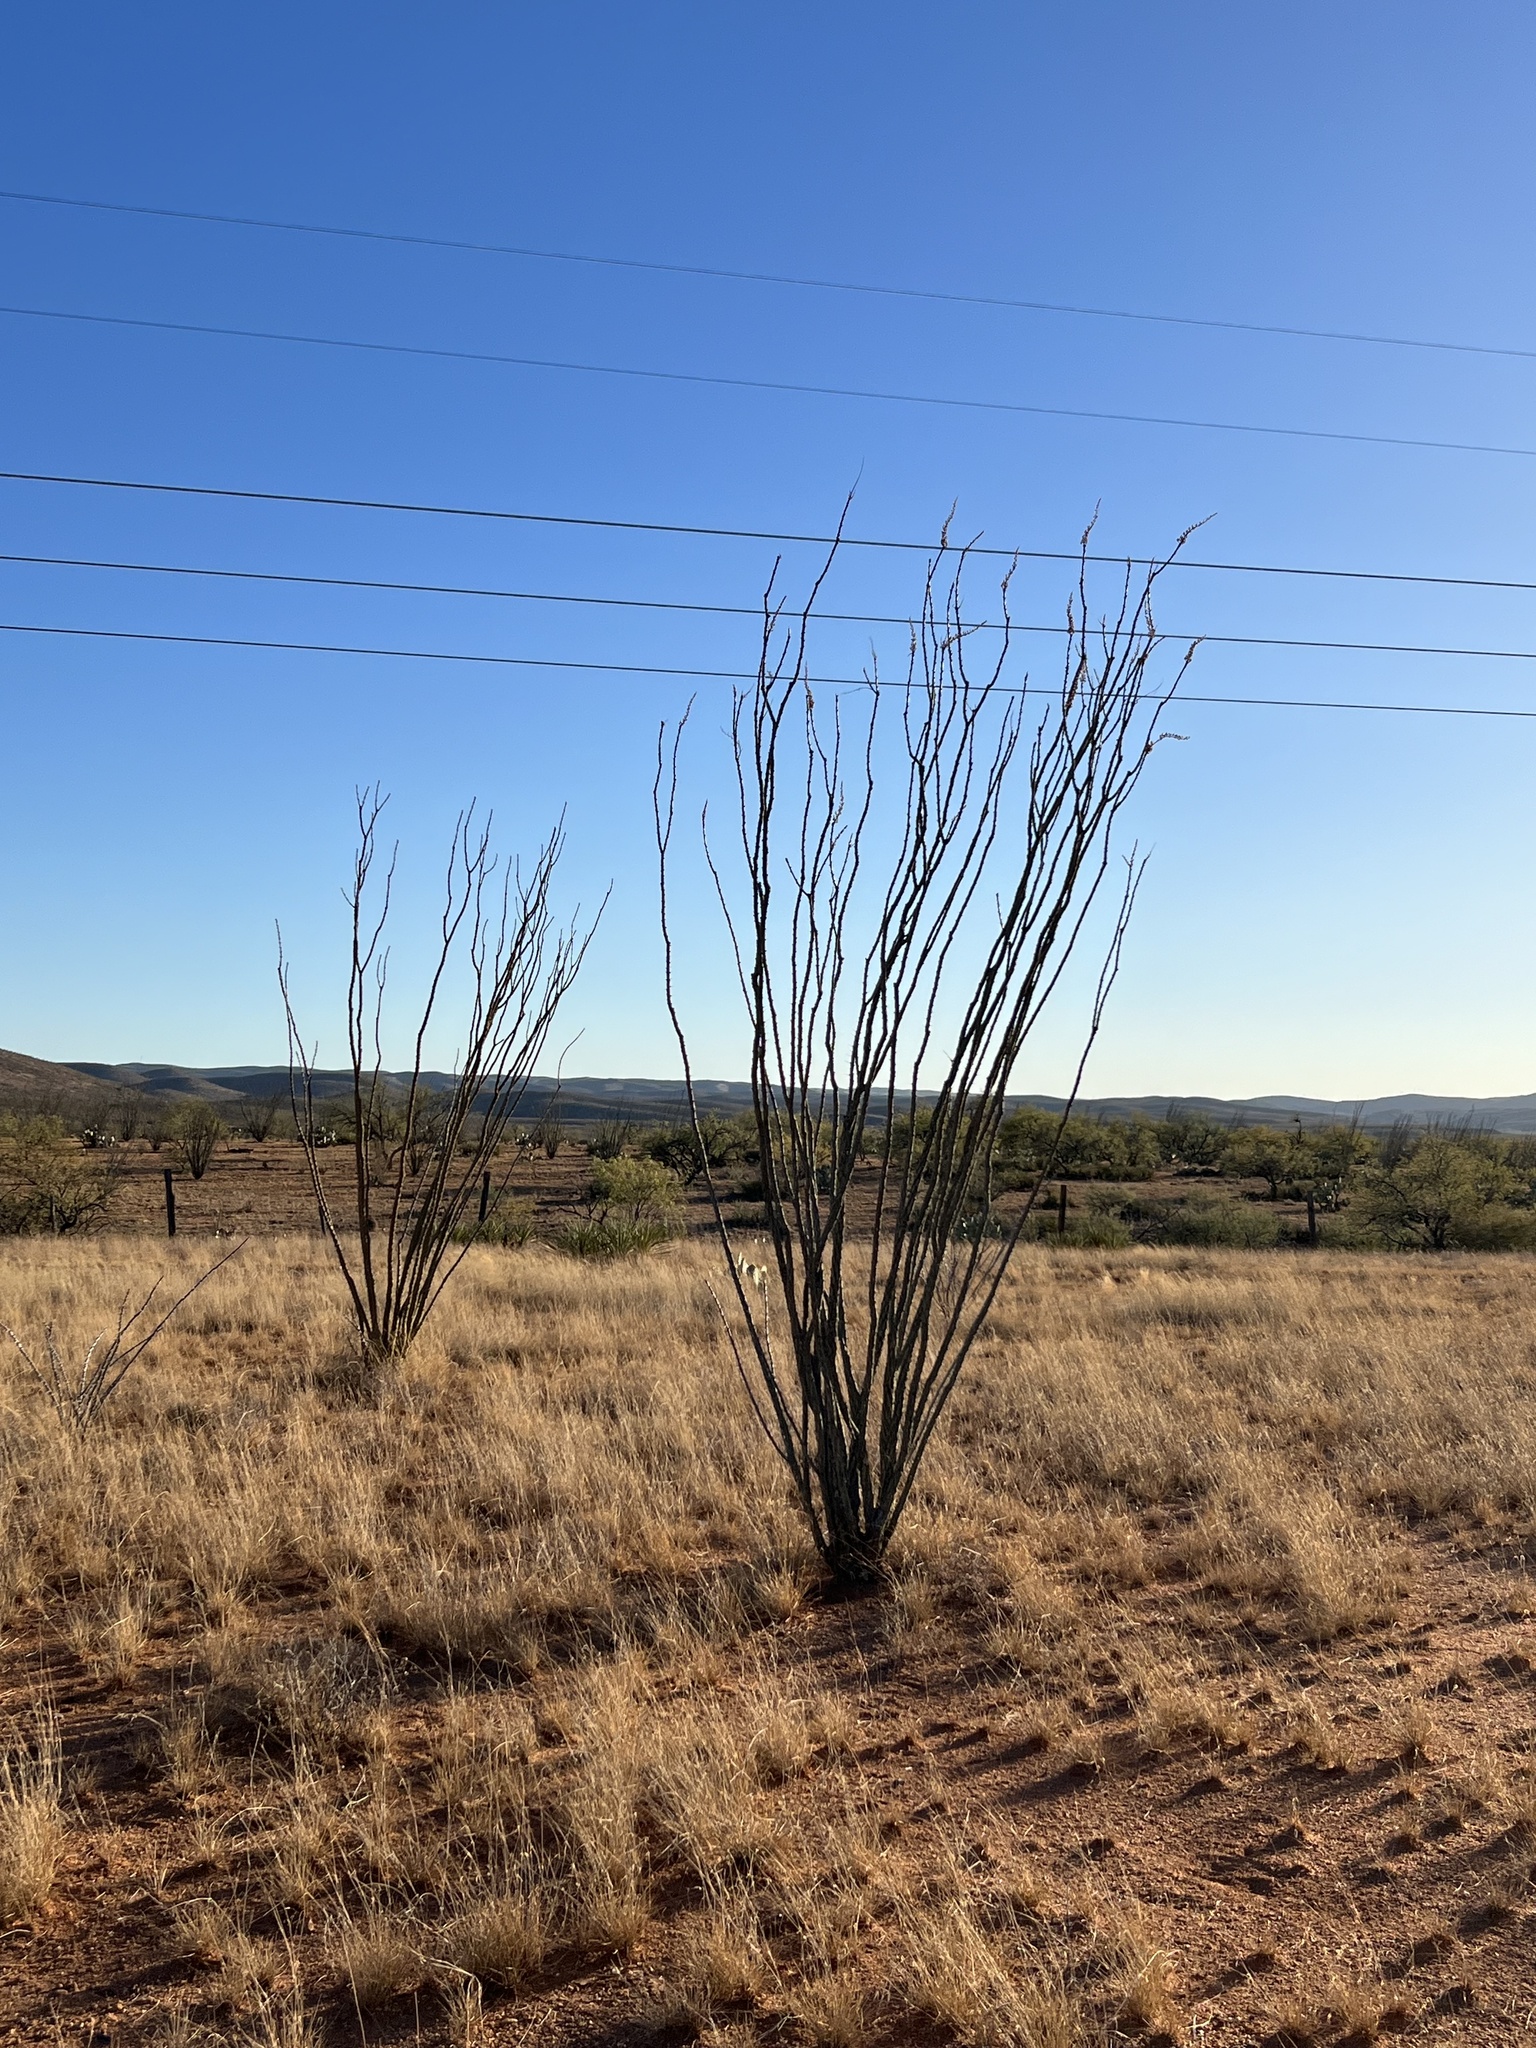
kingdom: Plantae
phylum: Tracheophyta
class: Magnoliopsida
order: Ericales
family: Fouquieriaceae
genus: Fouquieria
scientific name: Fouquieria splendens
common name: Vine-cactus
